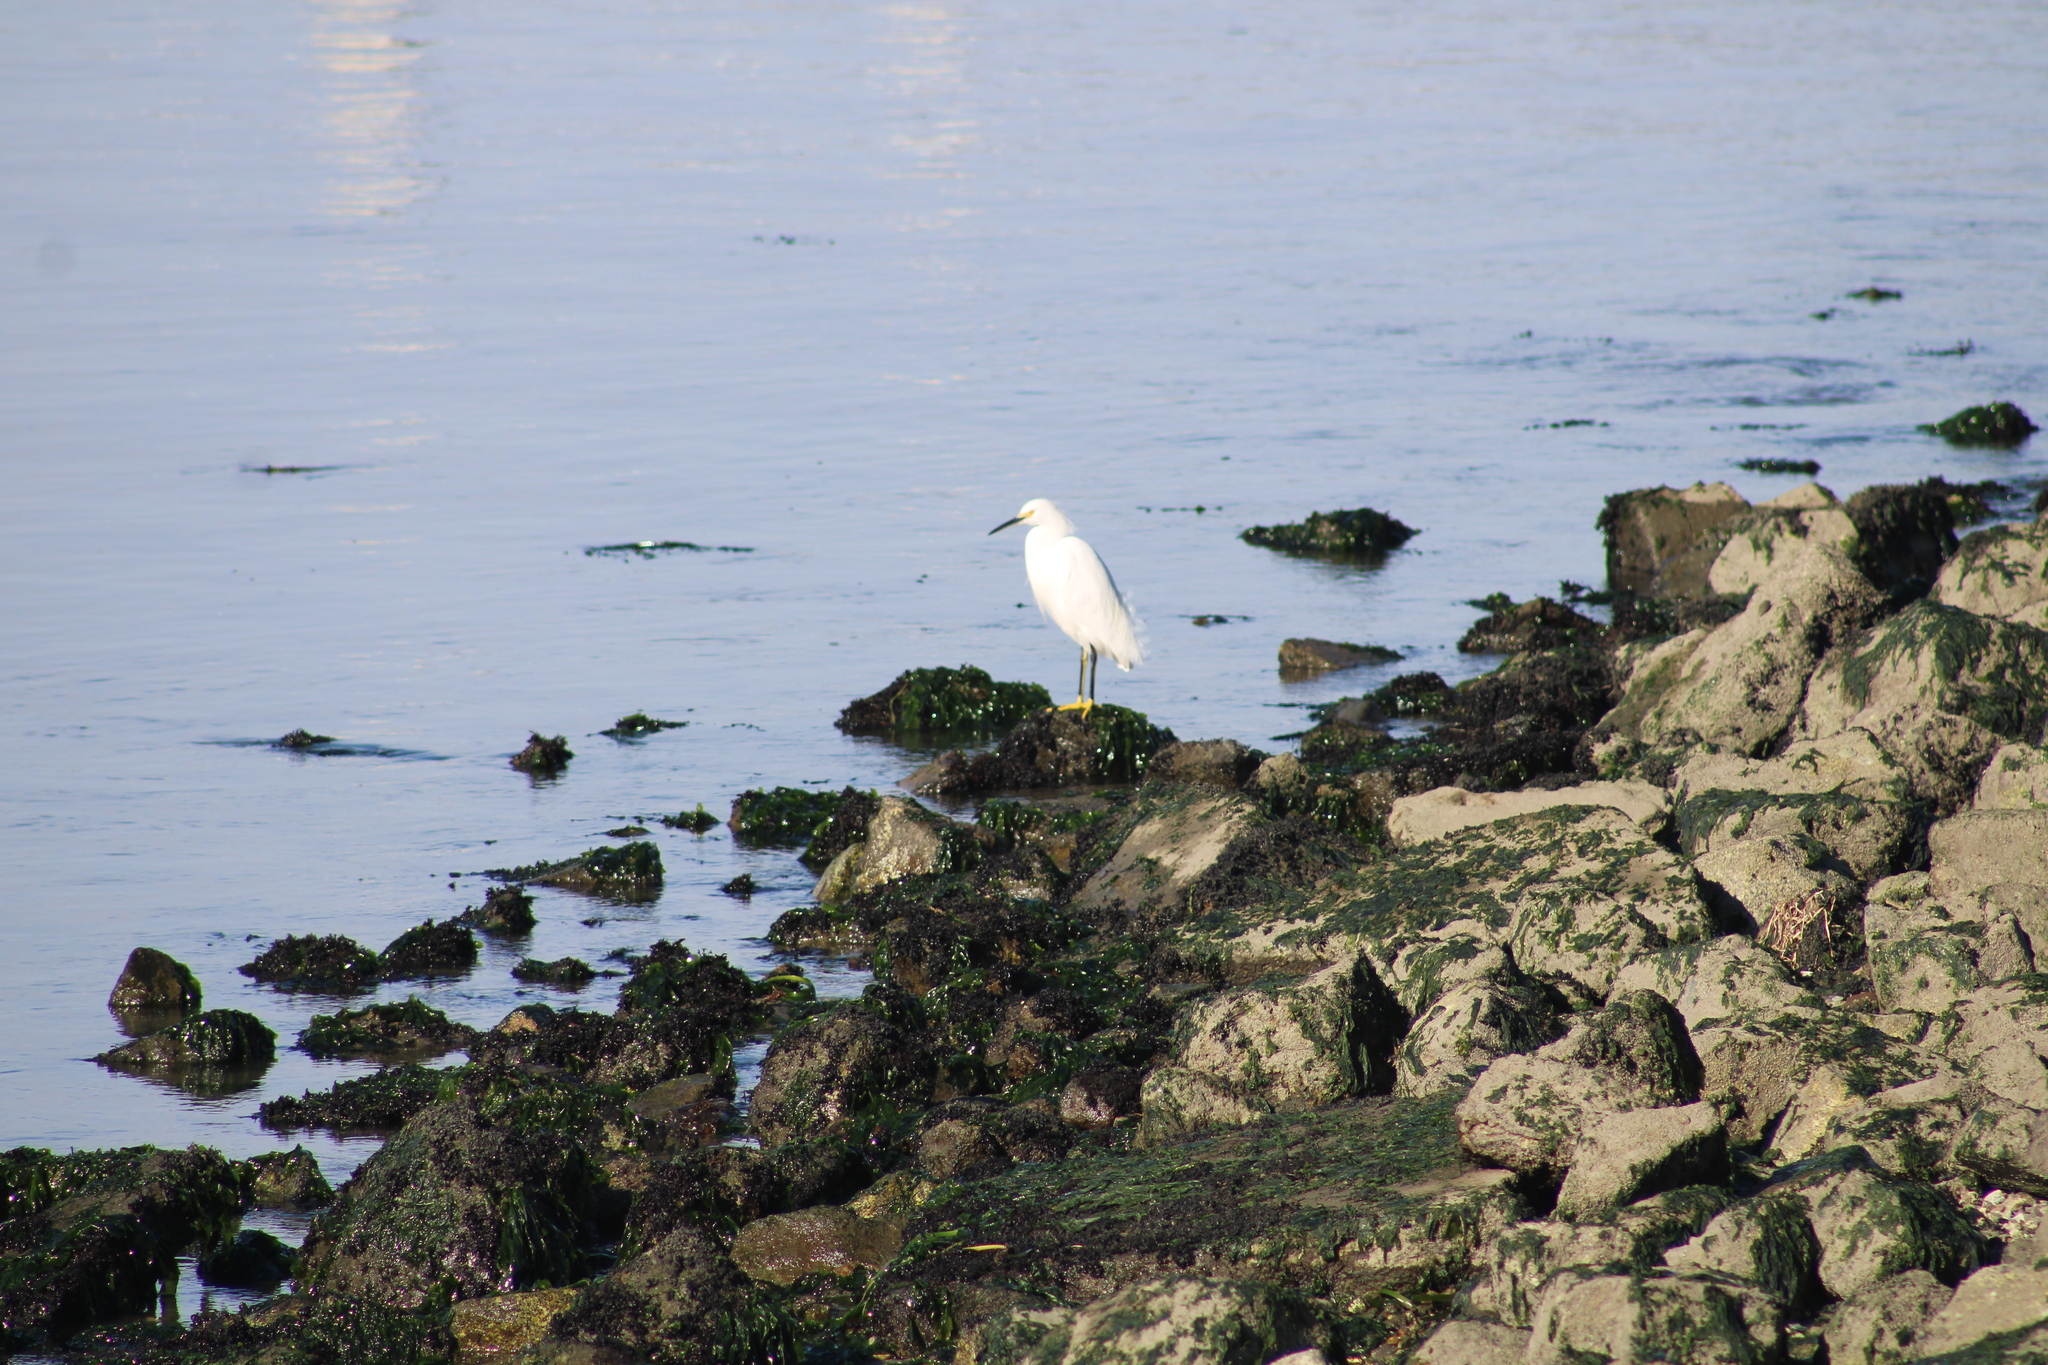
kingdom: Animalia
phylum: Chordata
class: Aves
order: Pelecaniformes
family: Ardeidae
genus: Egretta
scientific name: Egretta thula
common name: Snowy egret
